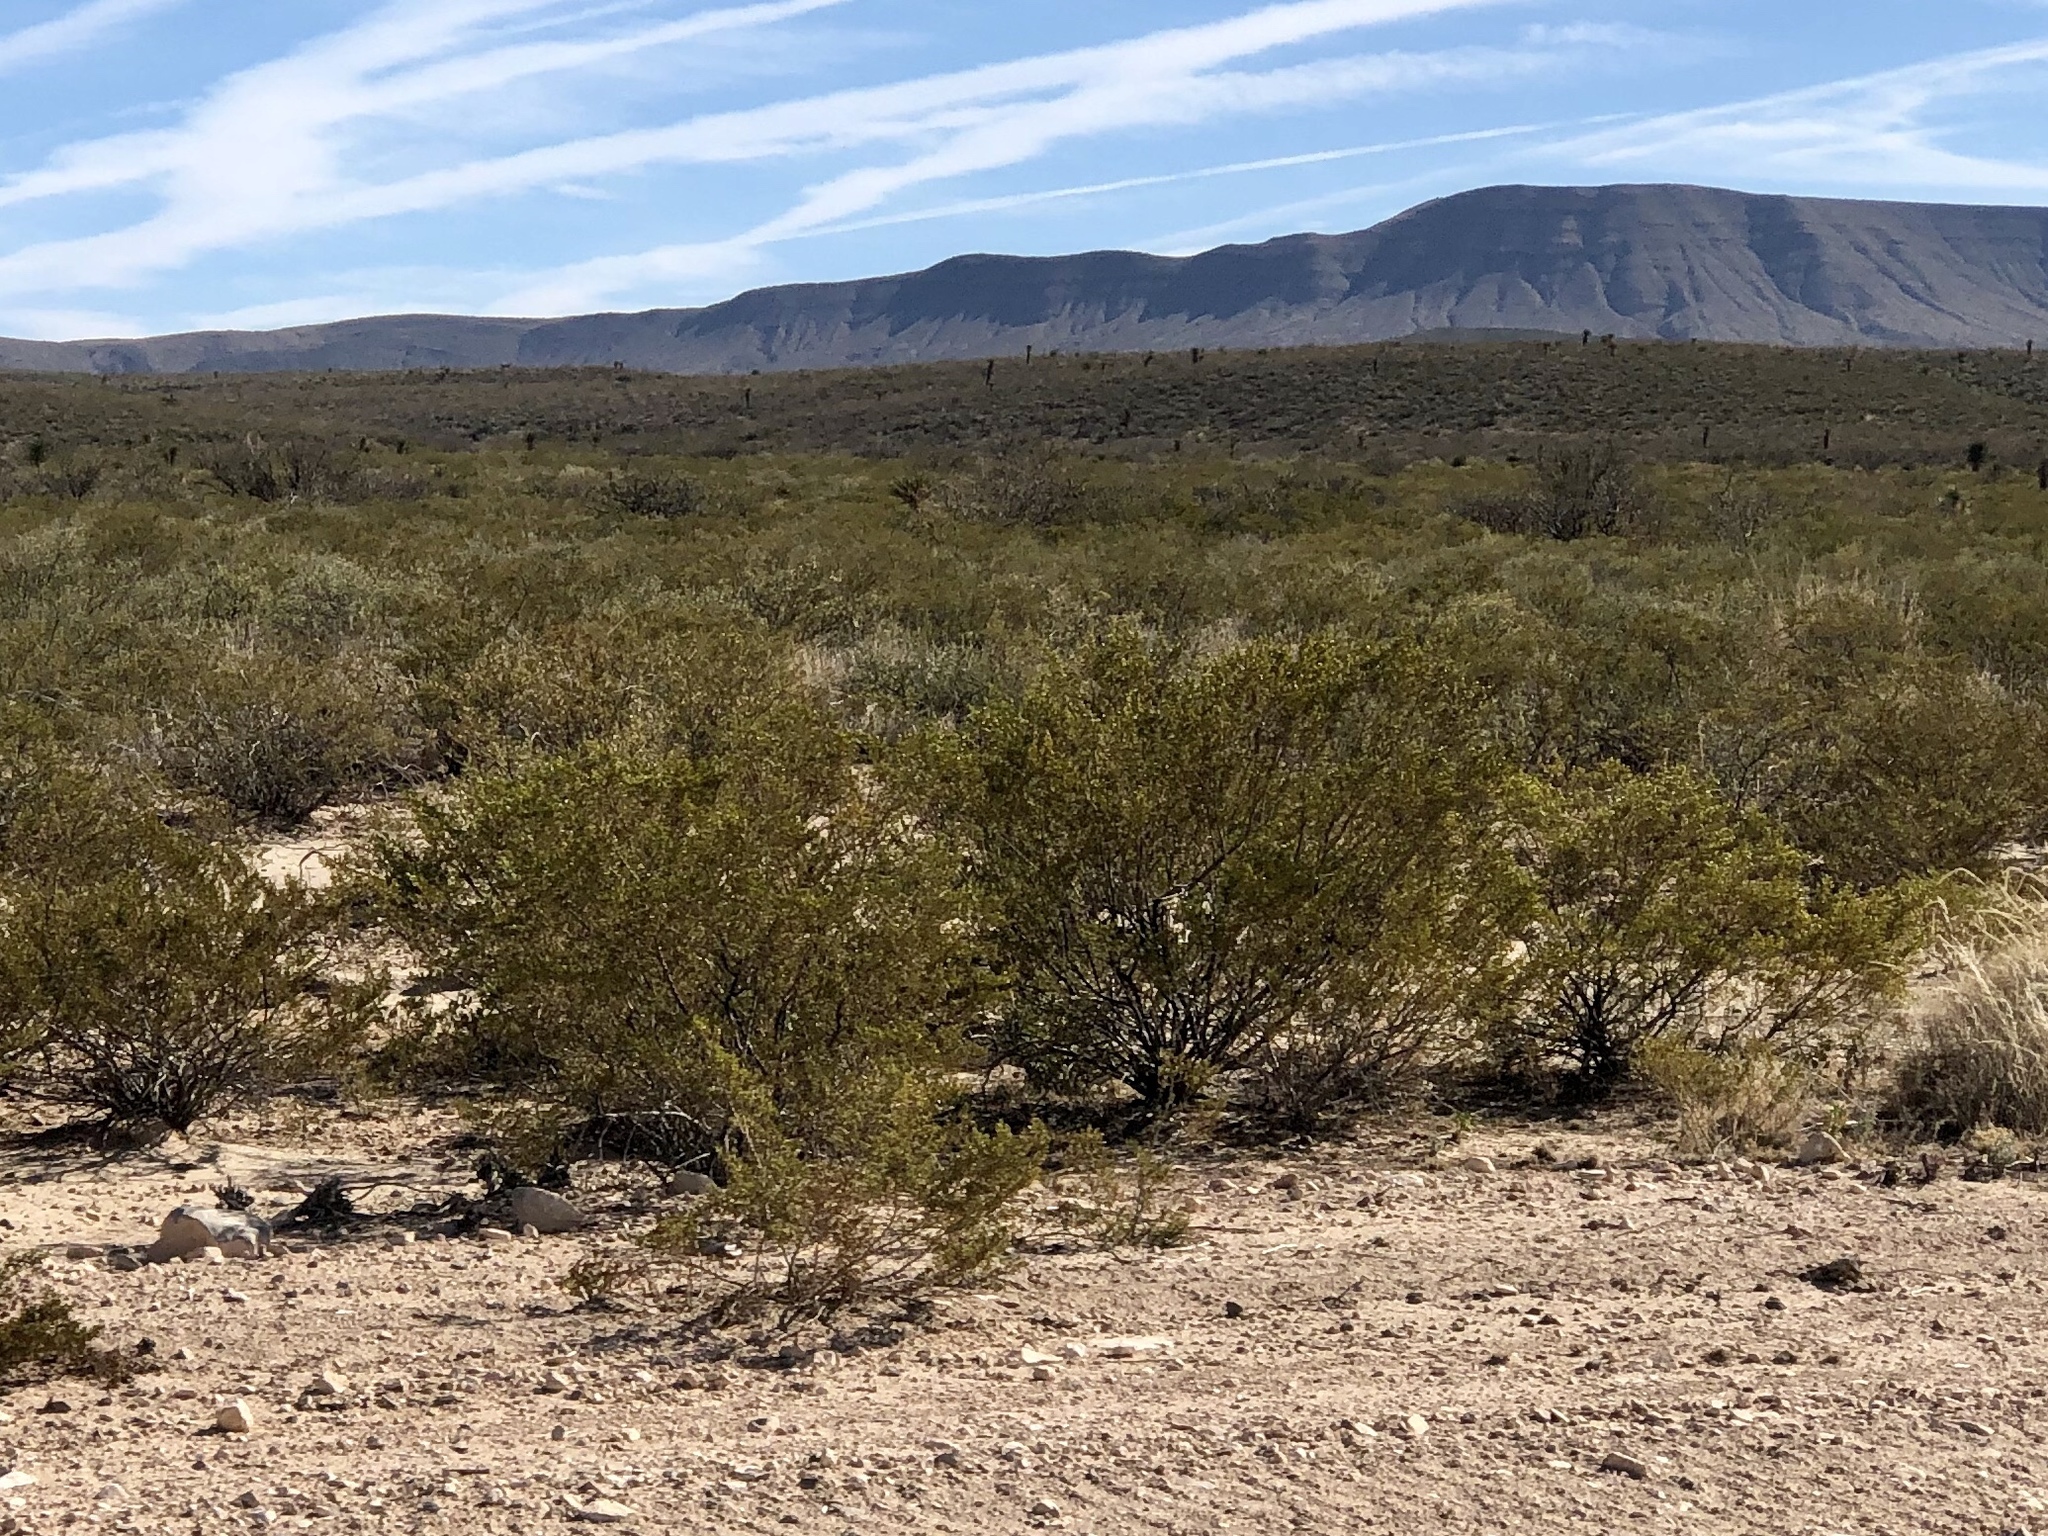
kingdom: Plantae
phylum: Tracheophyta
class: Magnoliopsida
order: Zygophyllales
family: Zygophyllaceae
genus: Larrea
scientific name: Larrea tridentata
